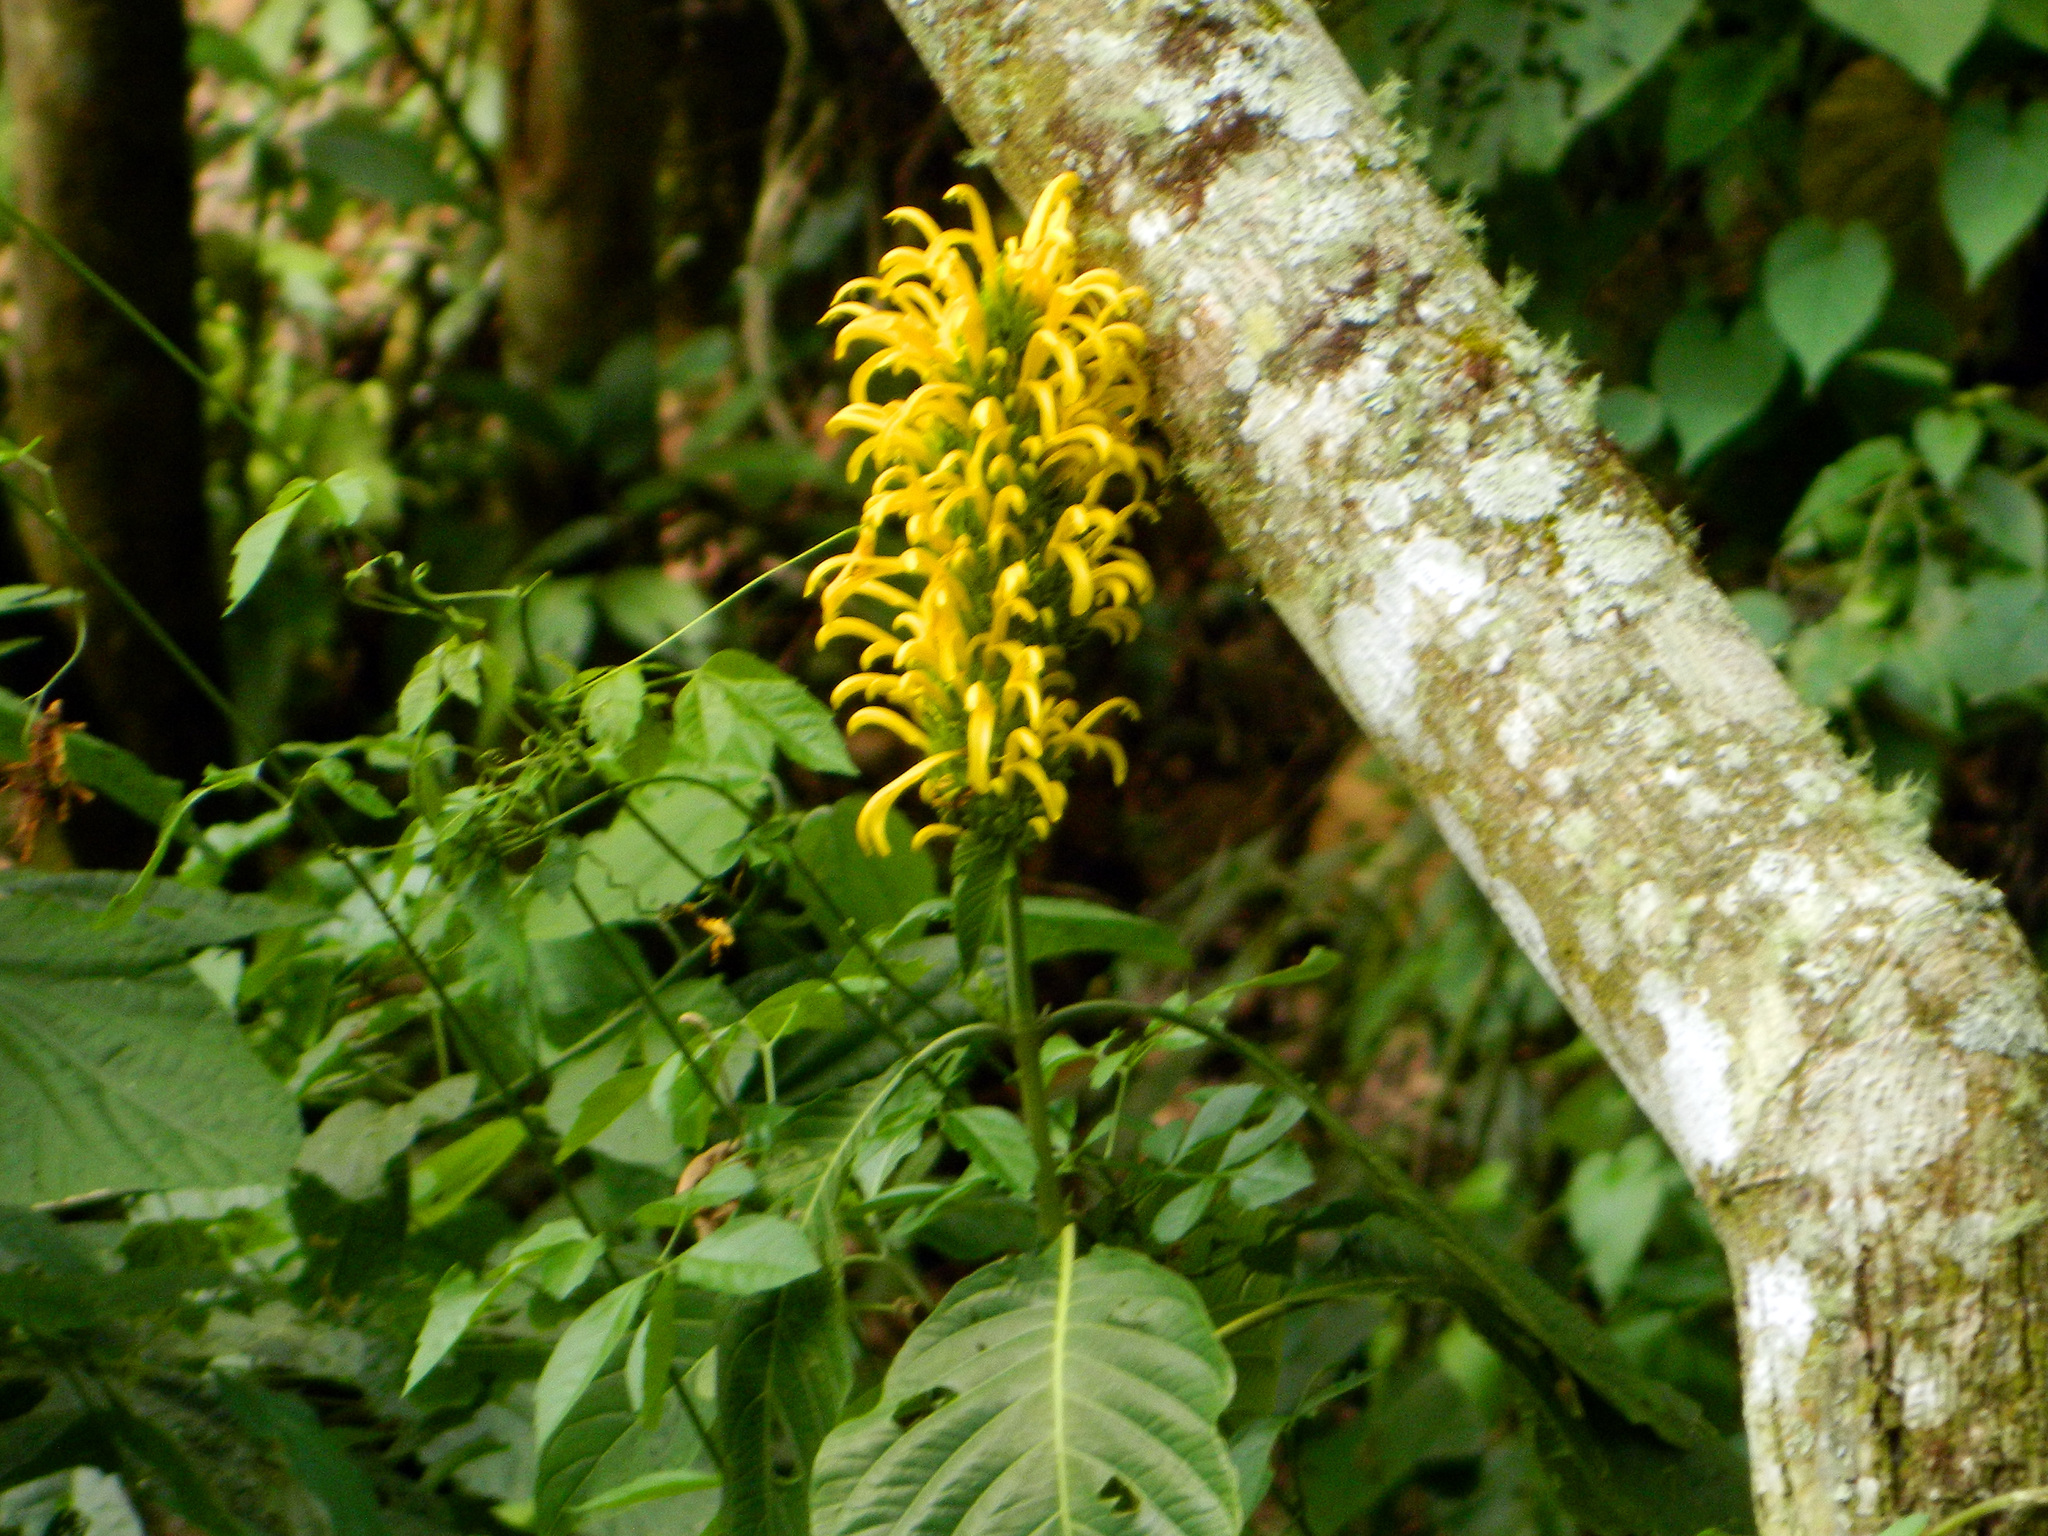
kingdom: Plantae
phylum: Tracheophyta
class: Magnoliopsida
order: Lamiales
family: Acanthaceae
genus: Justicia
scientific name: Justicia aurea
